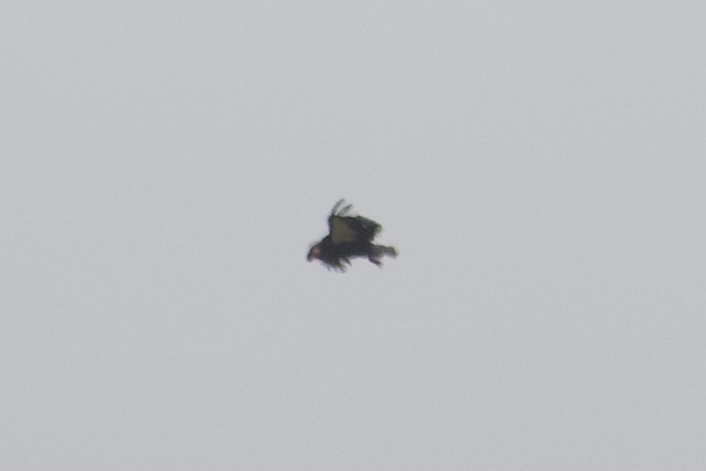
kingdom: Animalia
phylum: Chordata
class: Aves
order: Accipitriformes
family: Cathartidae
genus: Gymnogyps
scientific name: Gymnogyps californianus
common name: California condor
